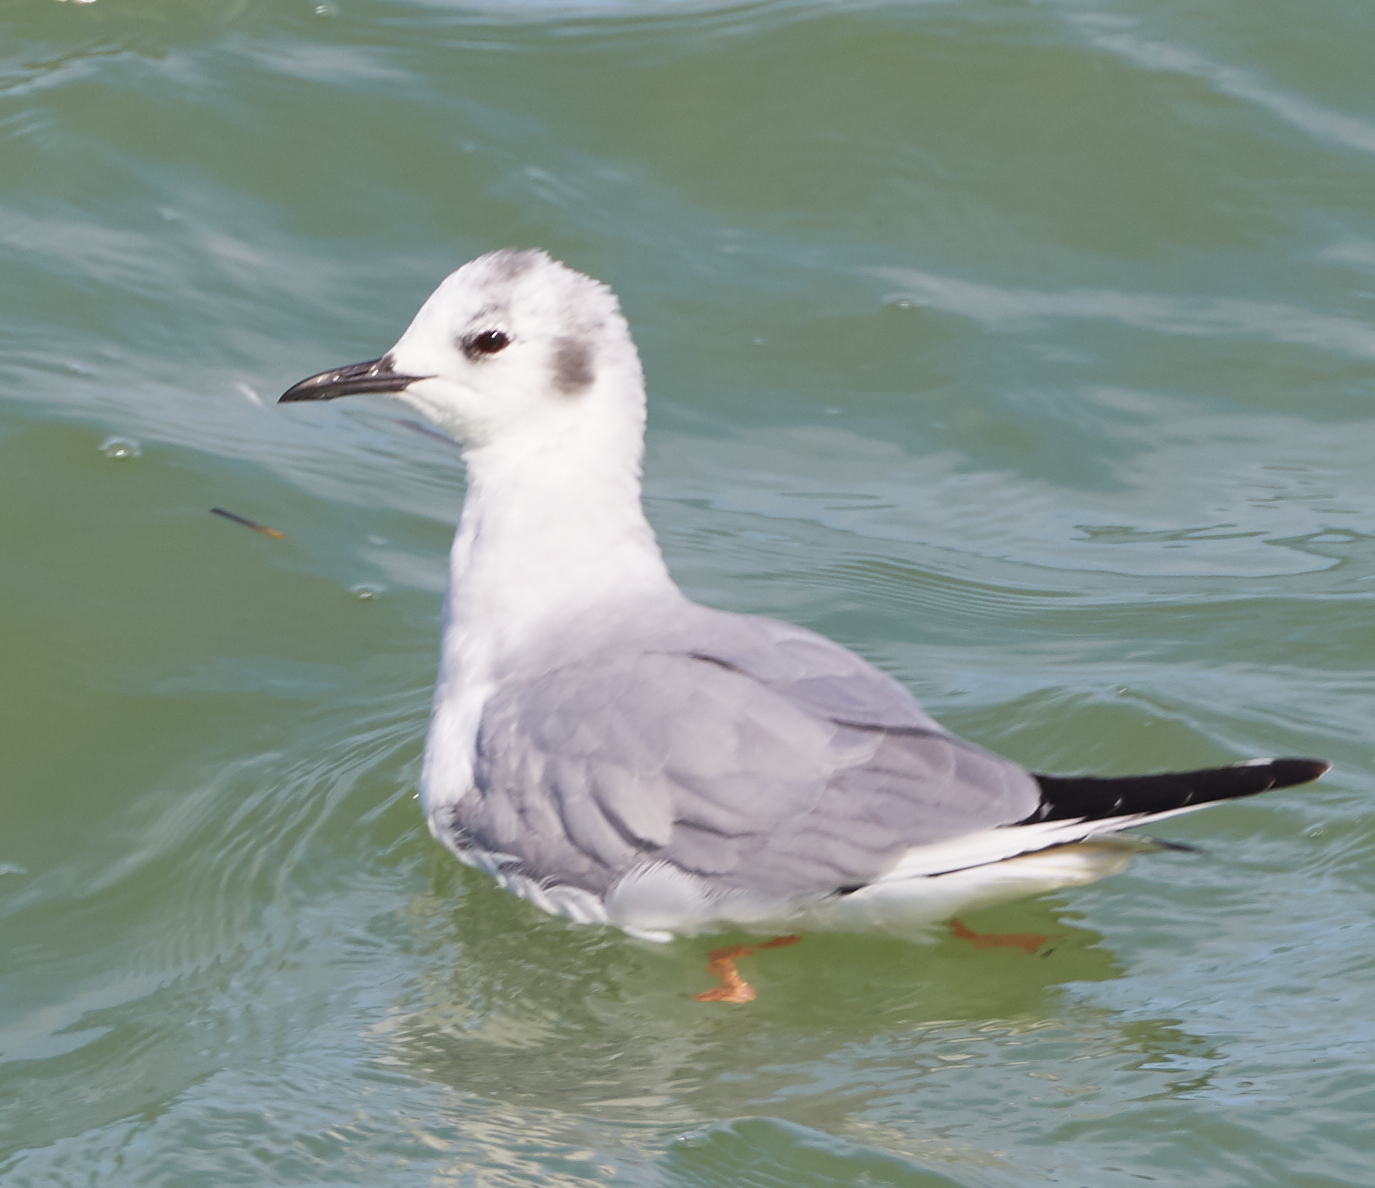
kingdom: Animalia
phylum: Chordata
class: Aves
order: Charadriiformes
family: Laridae
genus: Chroicocephalus
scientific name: Chroicocephalus philadelphia
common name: Bonaparte's gull
